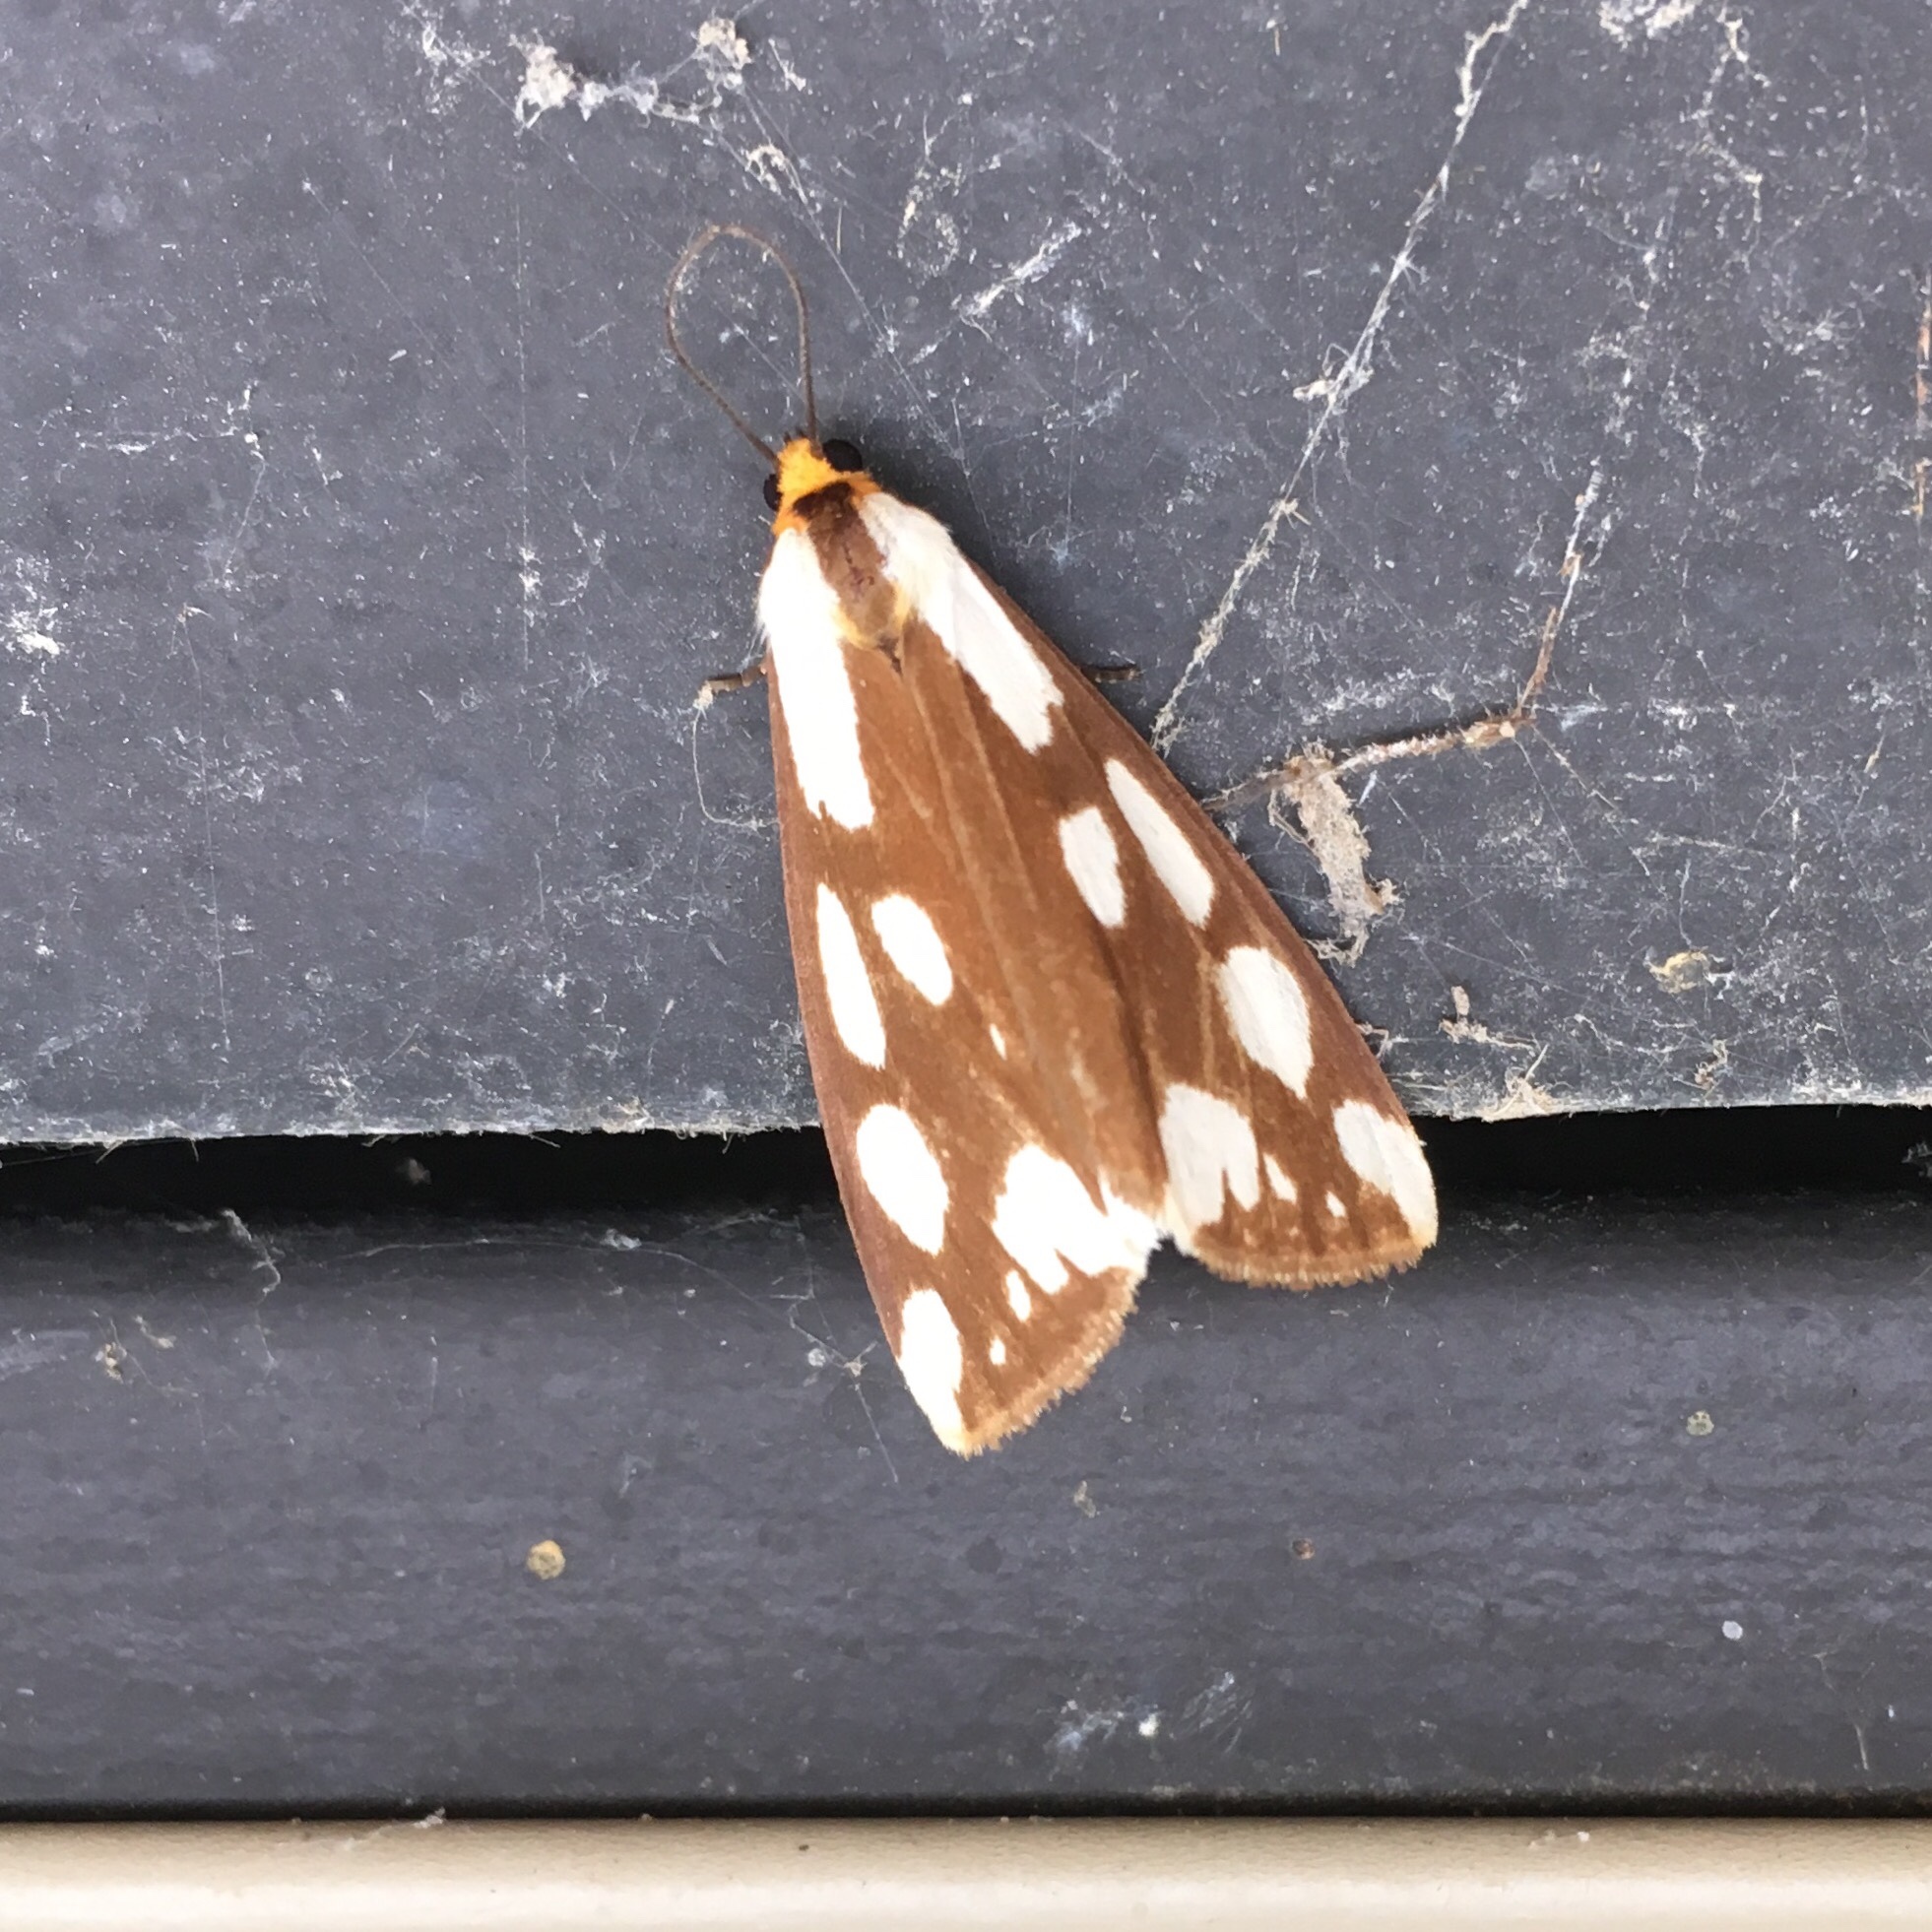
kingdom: Animalia
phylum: Arthropoda
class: Insecta
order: Lepidoptera
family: Erebidae
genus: Haploa
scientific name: Haploa confusa
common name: Confused haploa moth
